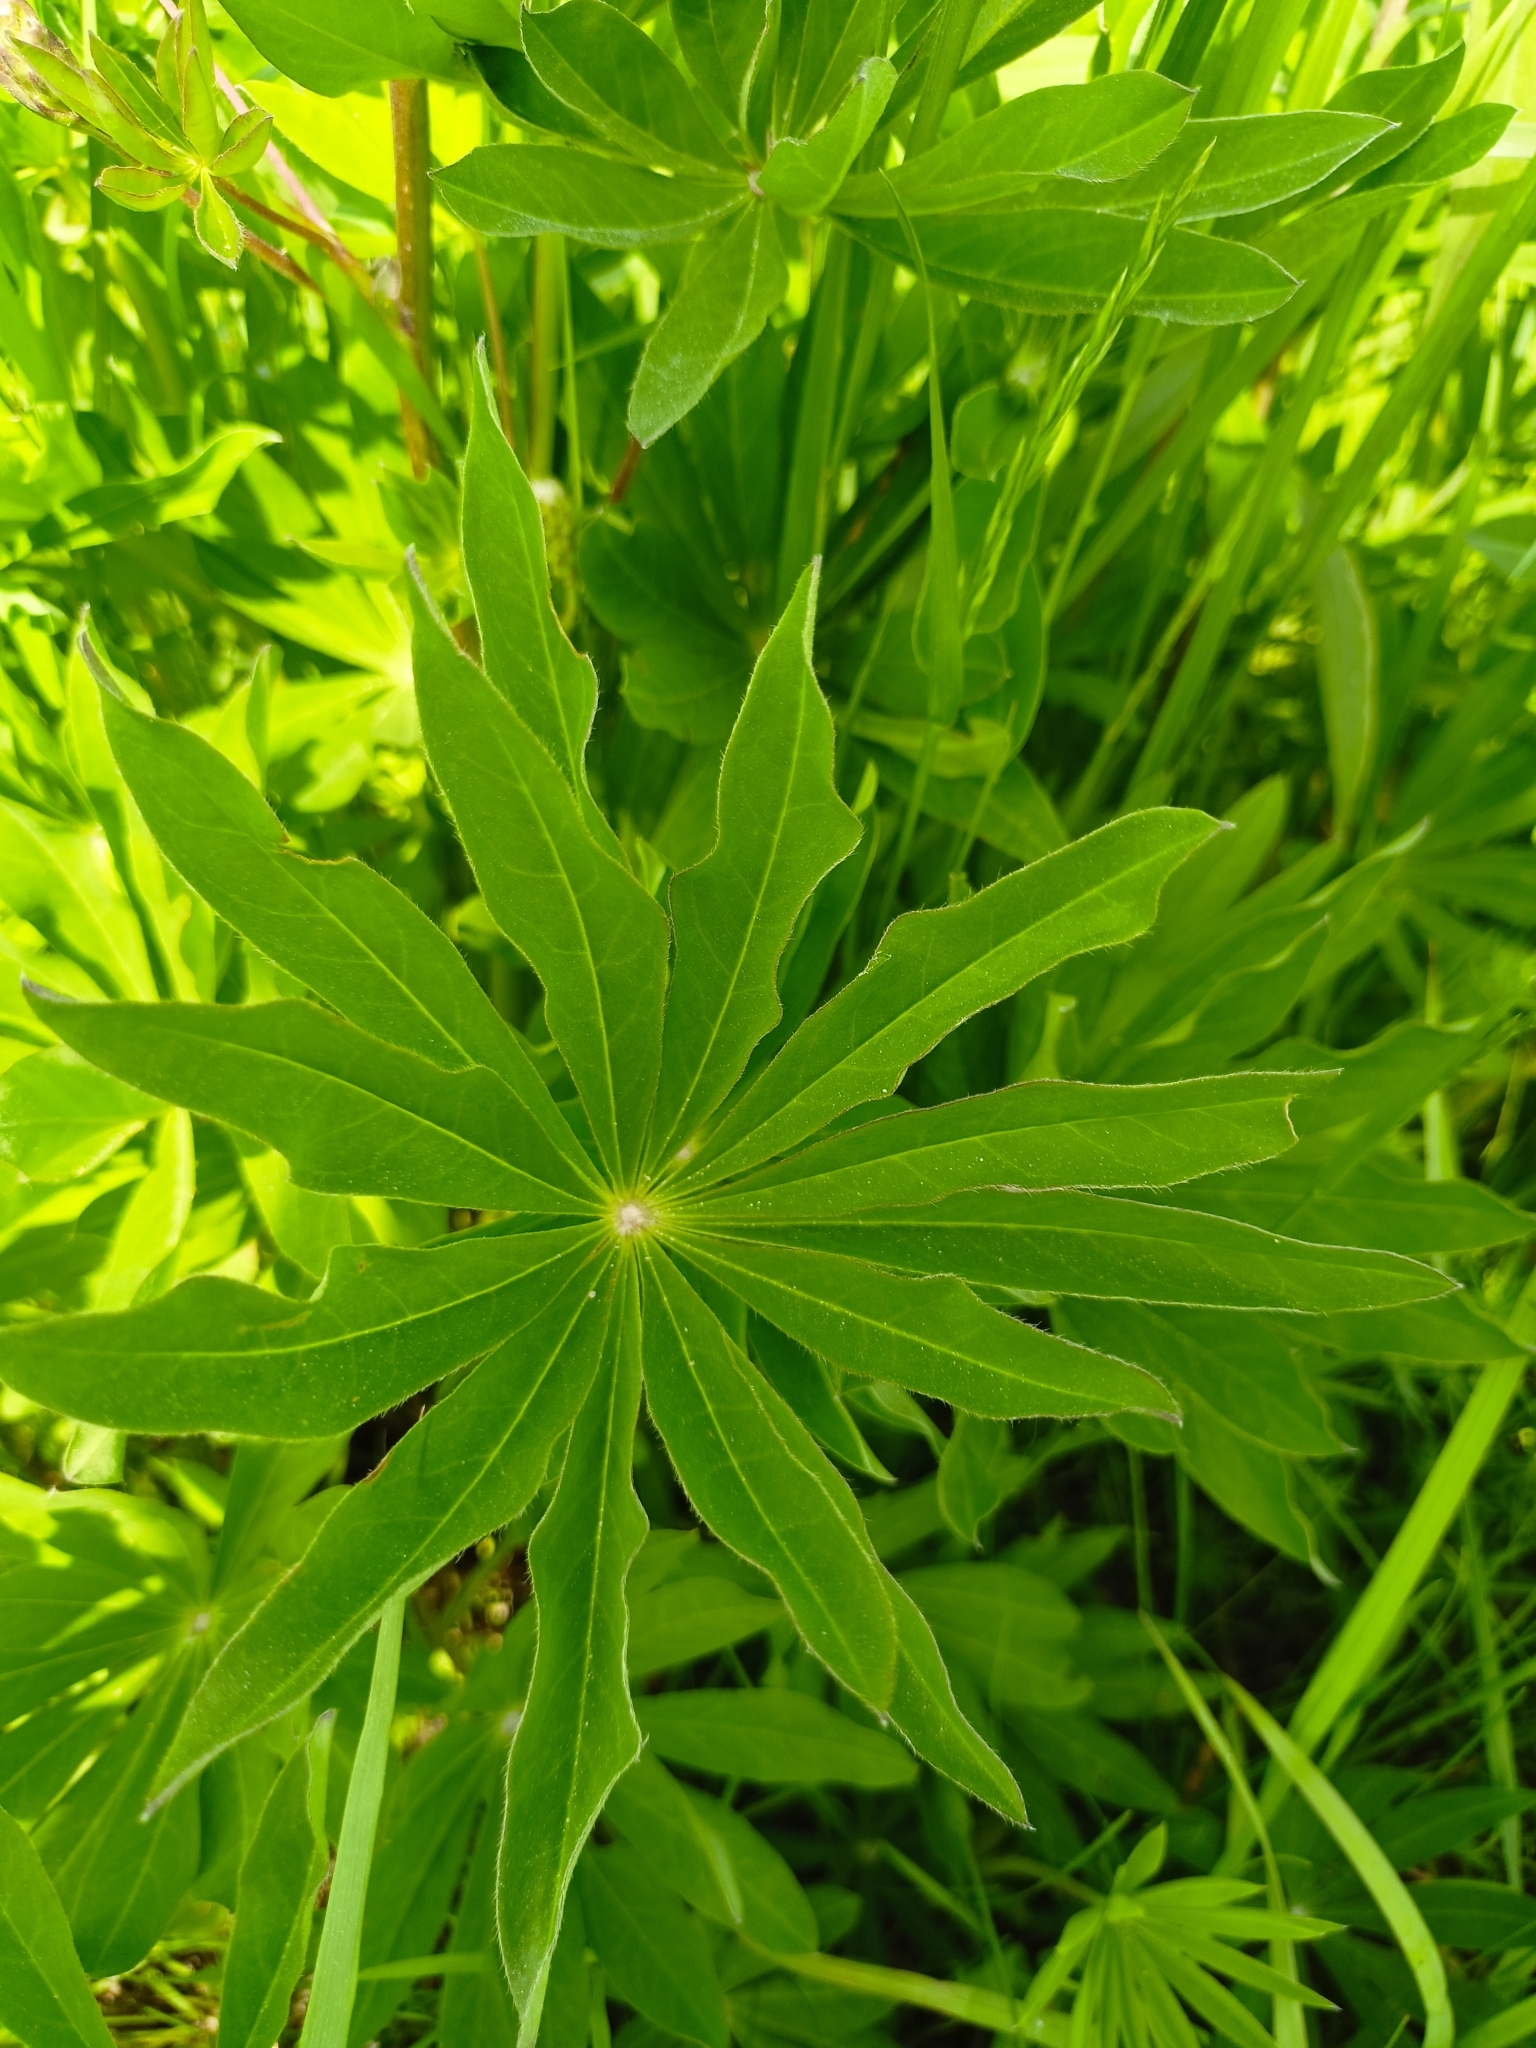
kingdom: Plantae
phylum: Tracheophyta
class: Magnoliopsida
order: Fabales
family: Fabaceae
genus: Lupinus
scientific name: Lupinus polyphyllus
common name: Garden lupin
